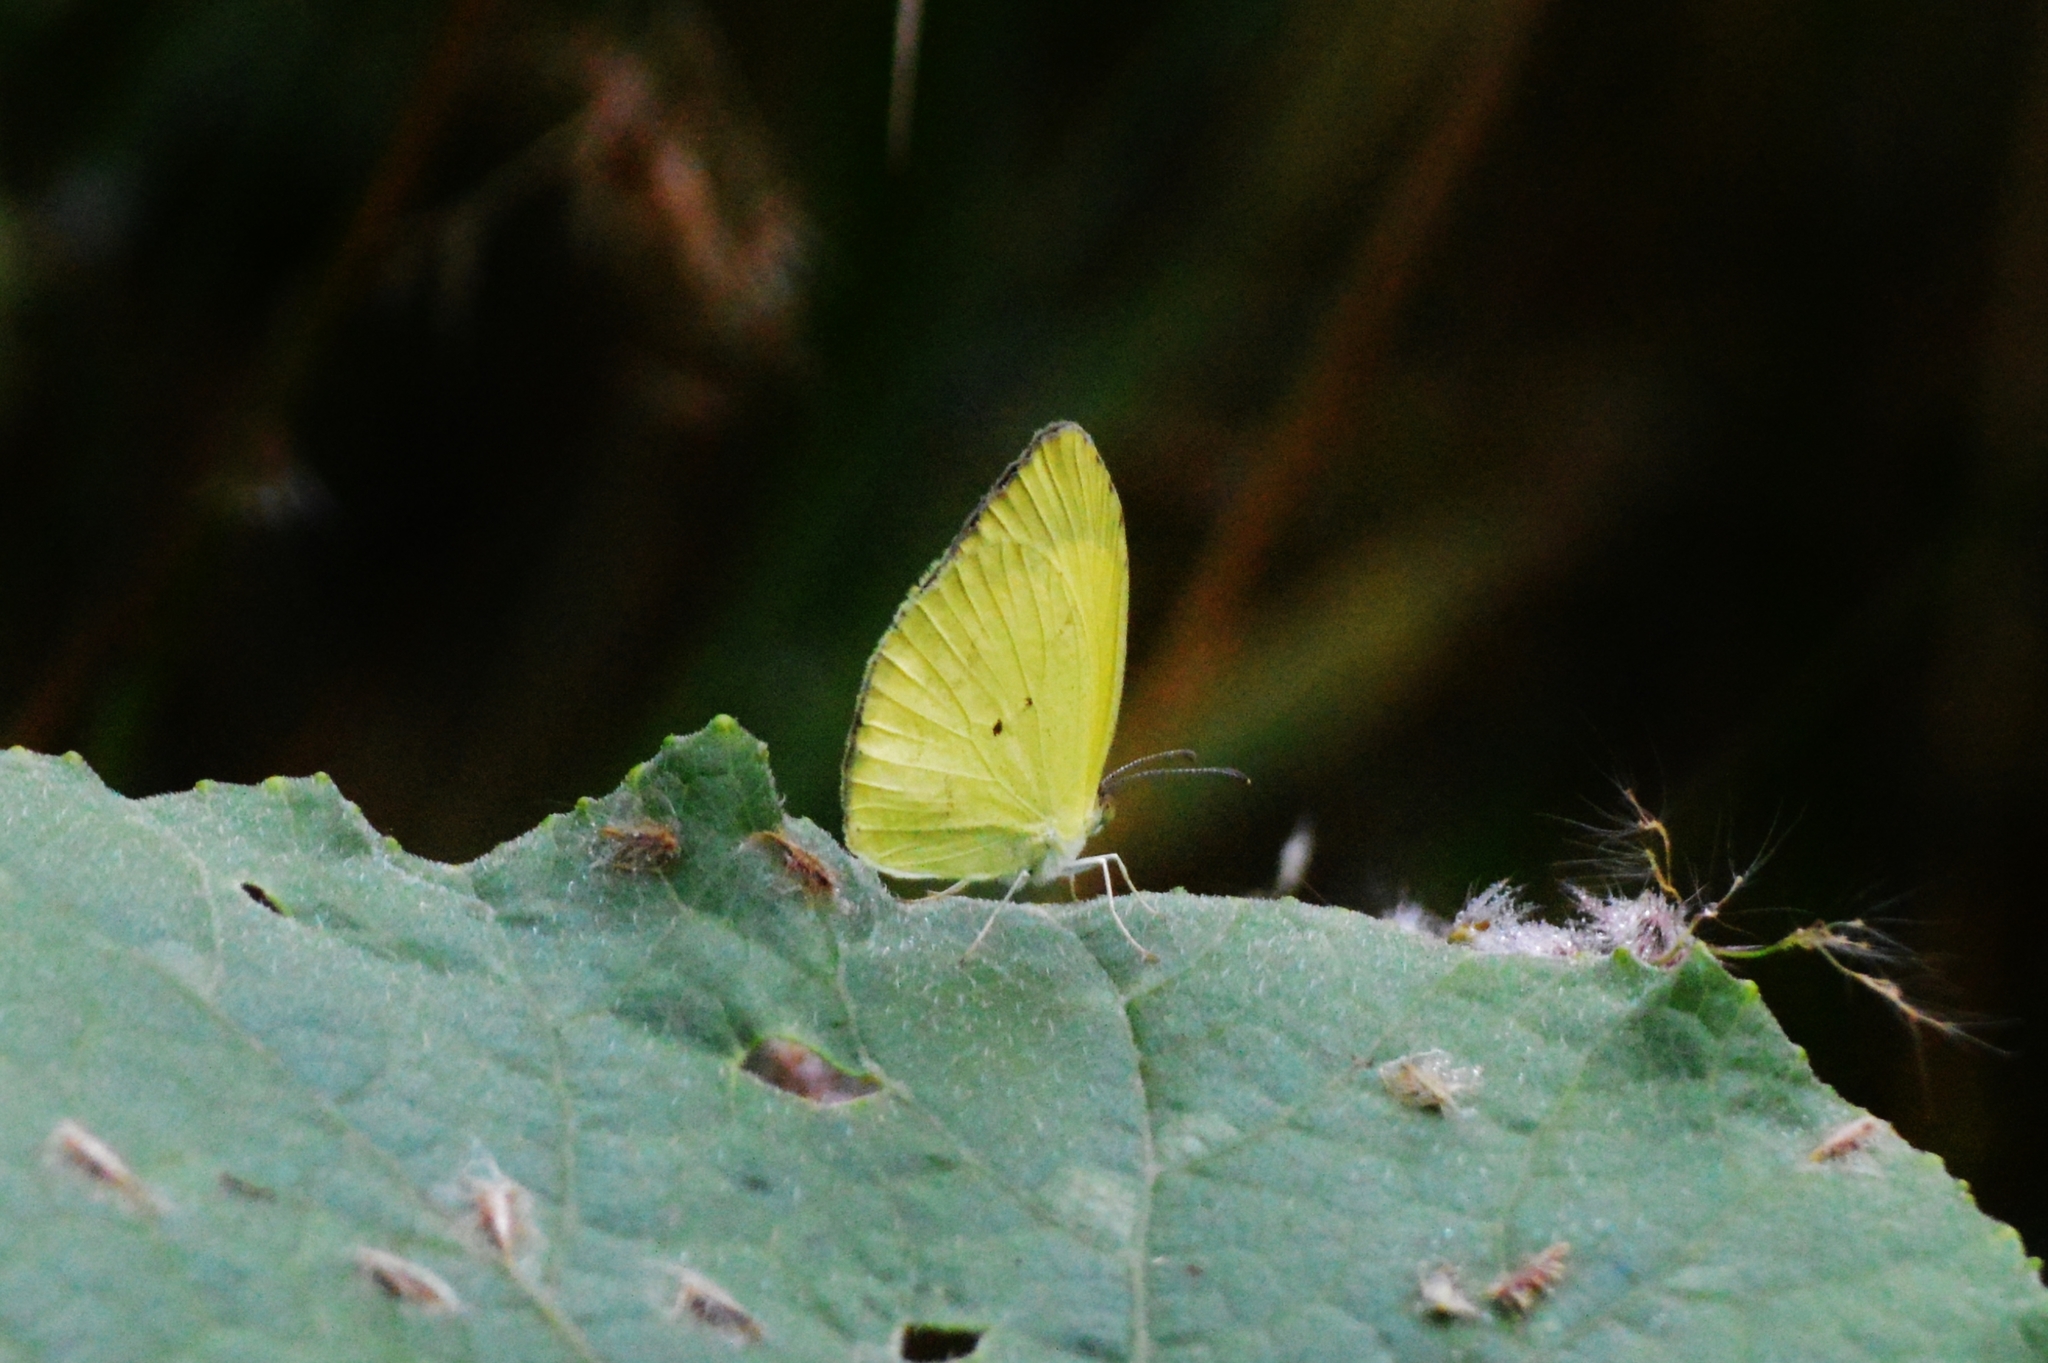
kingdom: Animalia
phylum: Arthropoda
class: Insecta
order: Lepidoptera
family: Pieridae
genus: Pyrisitia
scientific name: Pyrisitia nise
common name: Mimosa yellow
